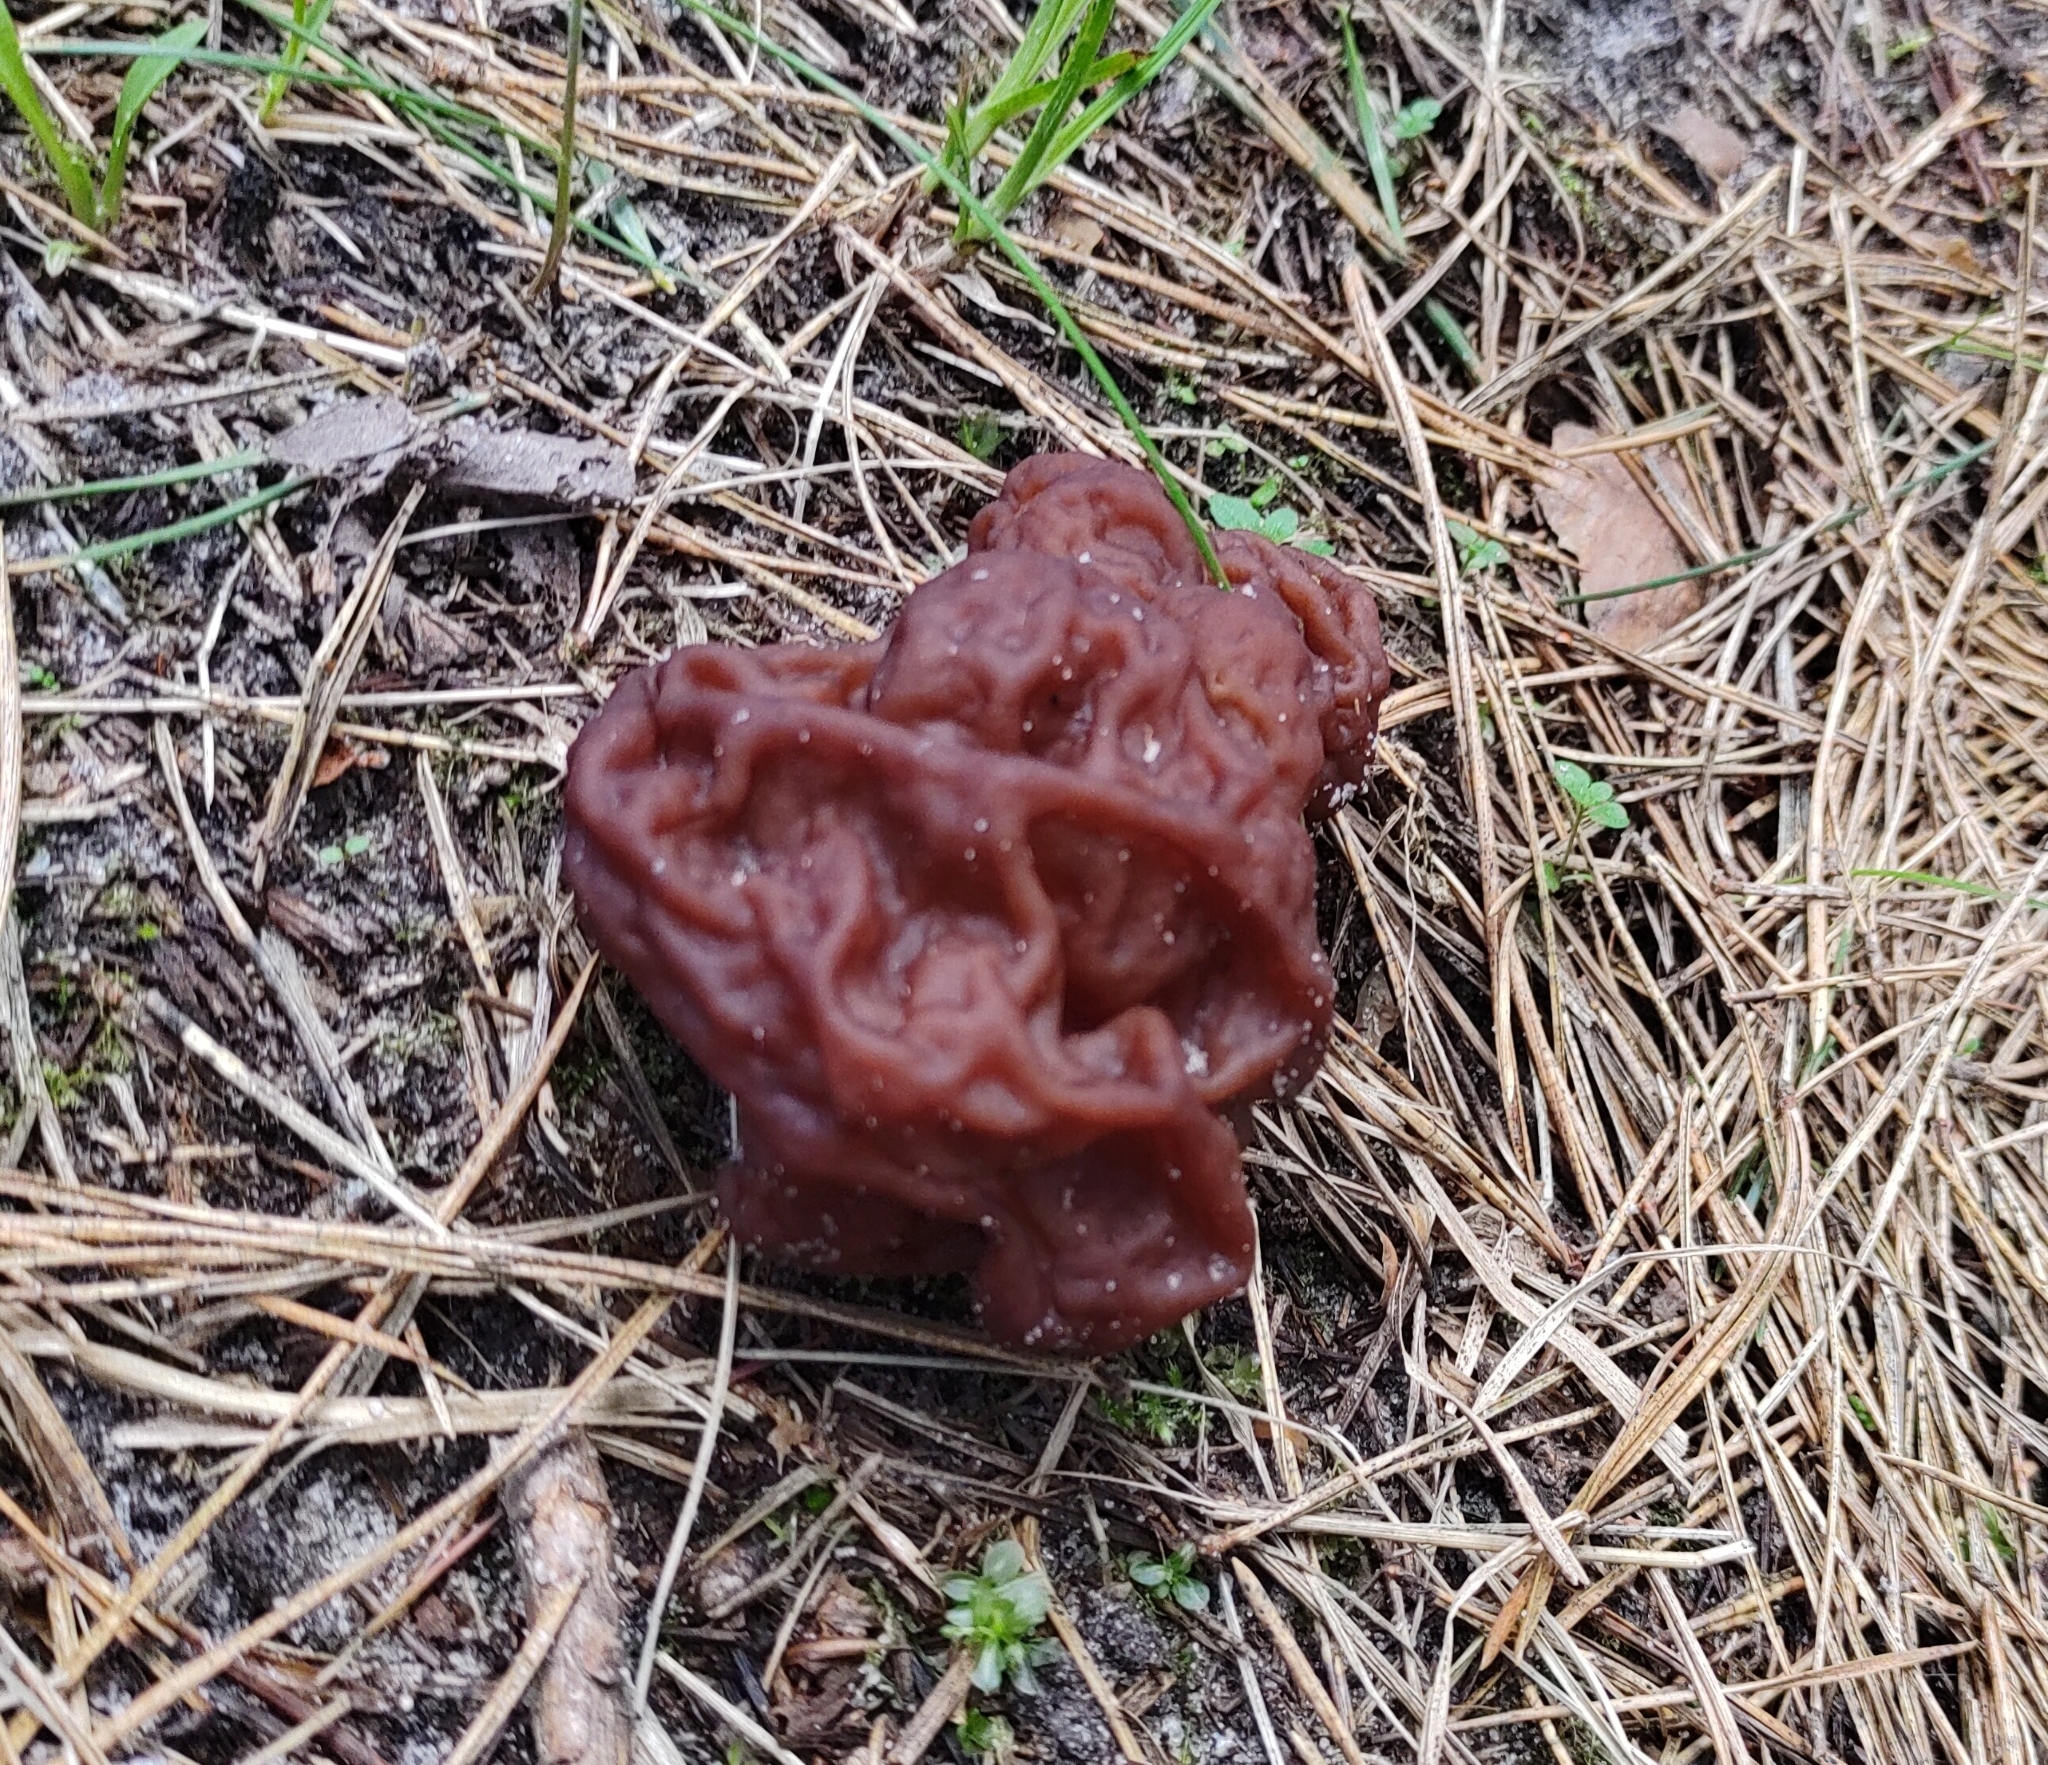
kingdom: Fungi
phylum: Ascomycota
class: Pezizomycetes
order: Pezizales
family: Discinaceae
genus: Gyromitra
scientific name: Gyromitra esculenta
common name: False morel
